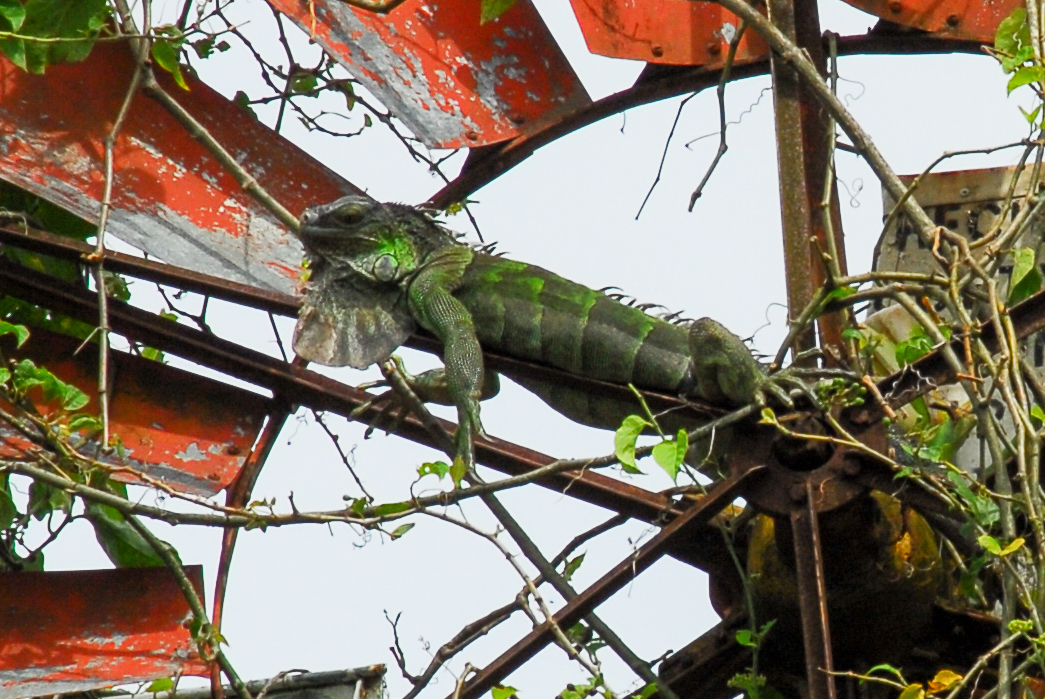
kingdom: Animalia
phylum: Chordata
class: Squamata
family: Iguanidae
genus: Iguana
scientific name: Iguana iguana
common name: Green iguana
